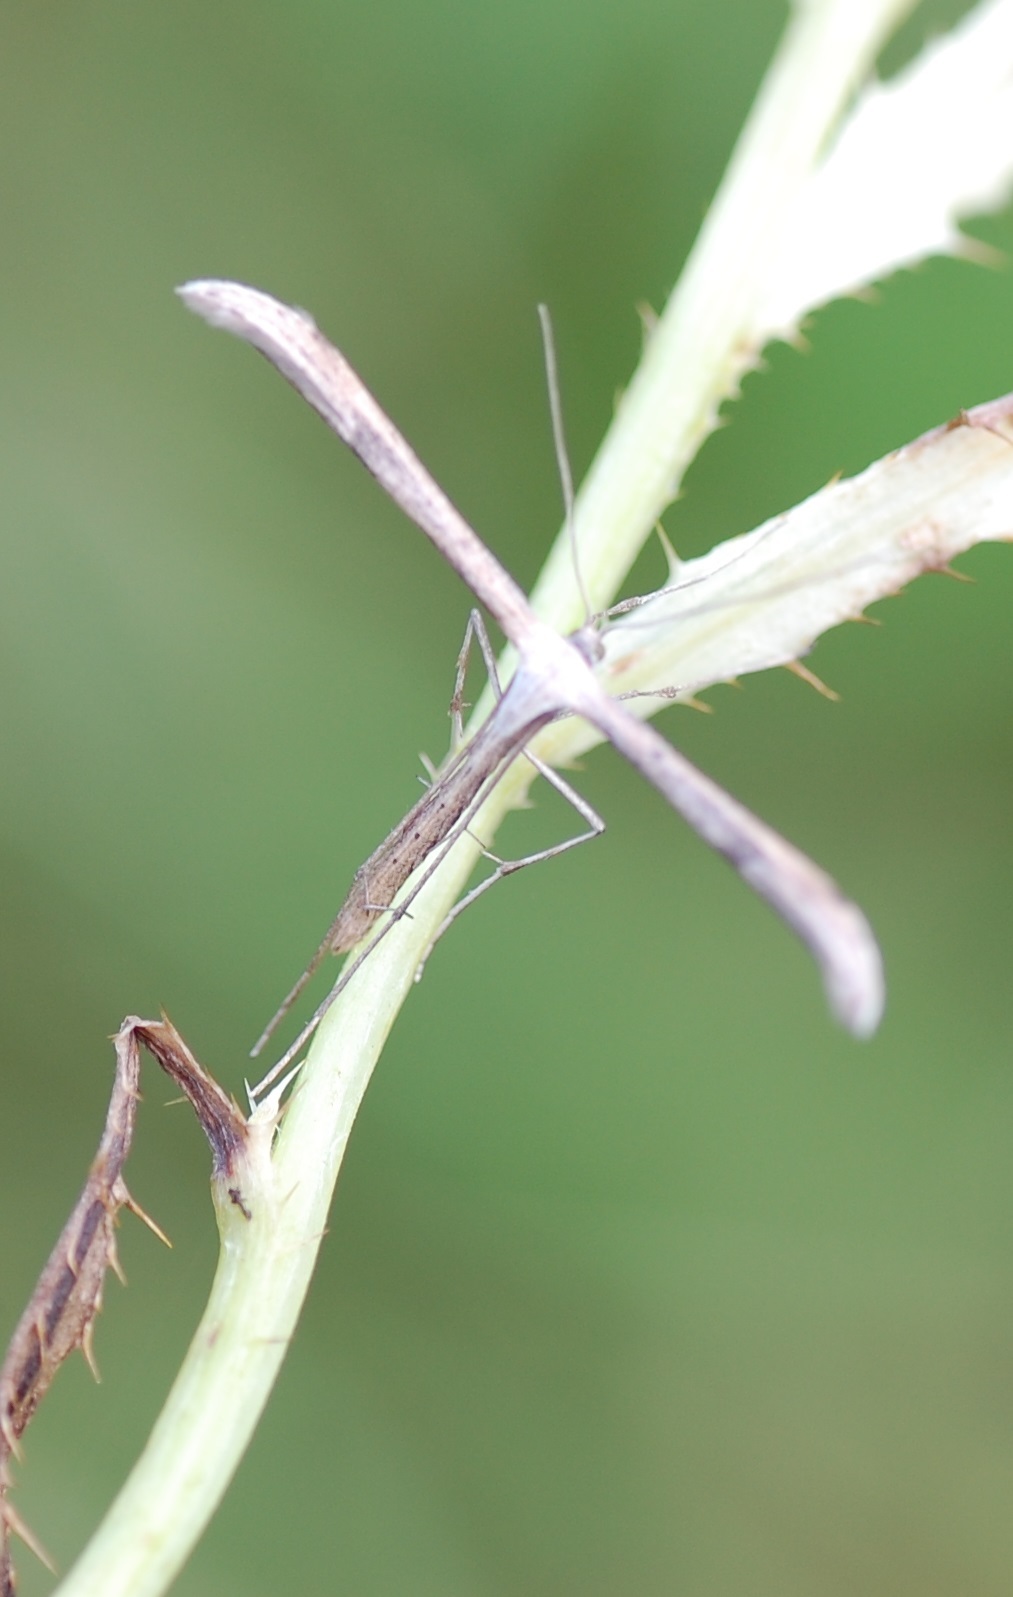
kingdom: Animalia
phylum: Arthropoda
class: Insecta
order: Lepidoptera
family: Pterophoridae
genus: Emmelina
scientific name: Emmelina monodactyla
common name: Common plume
